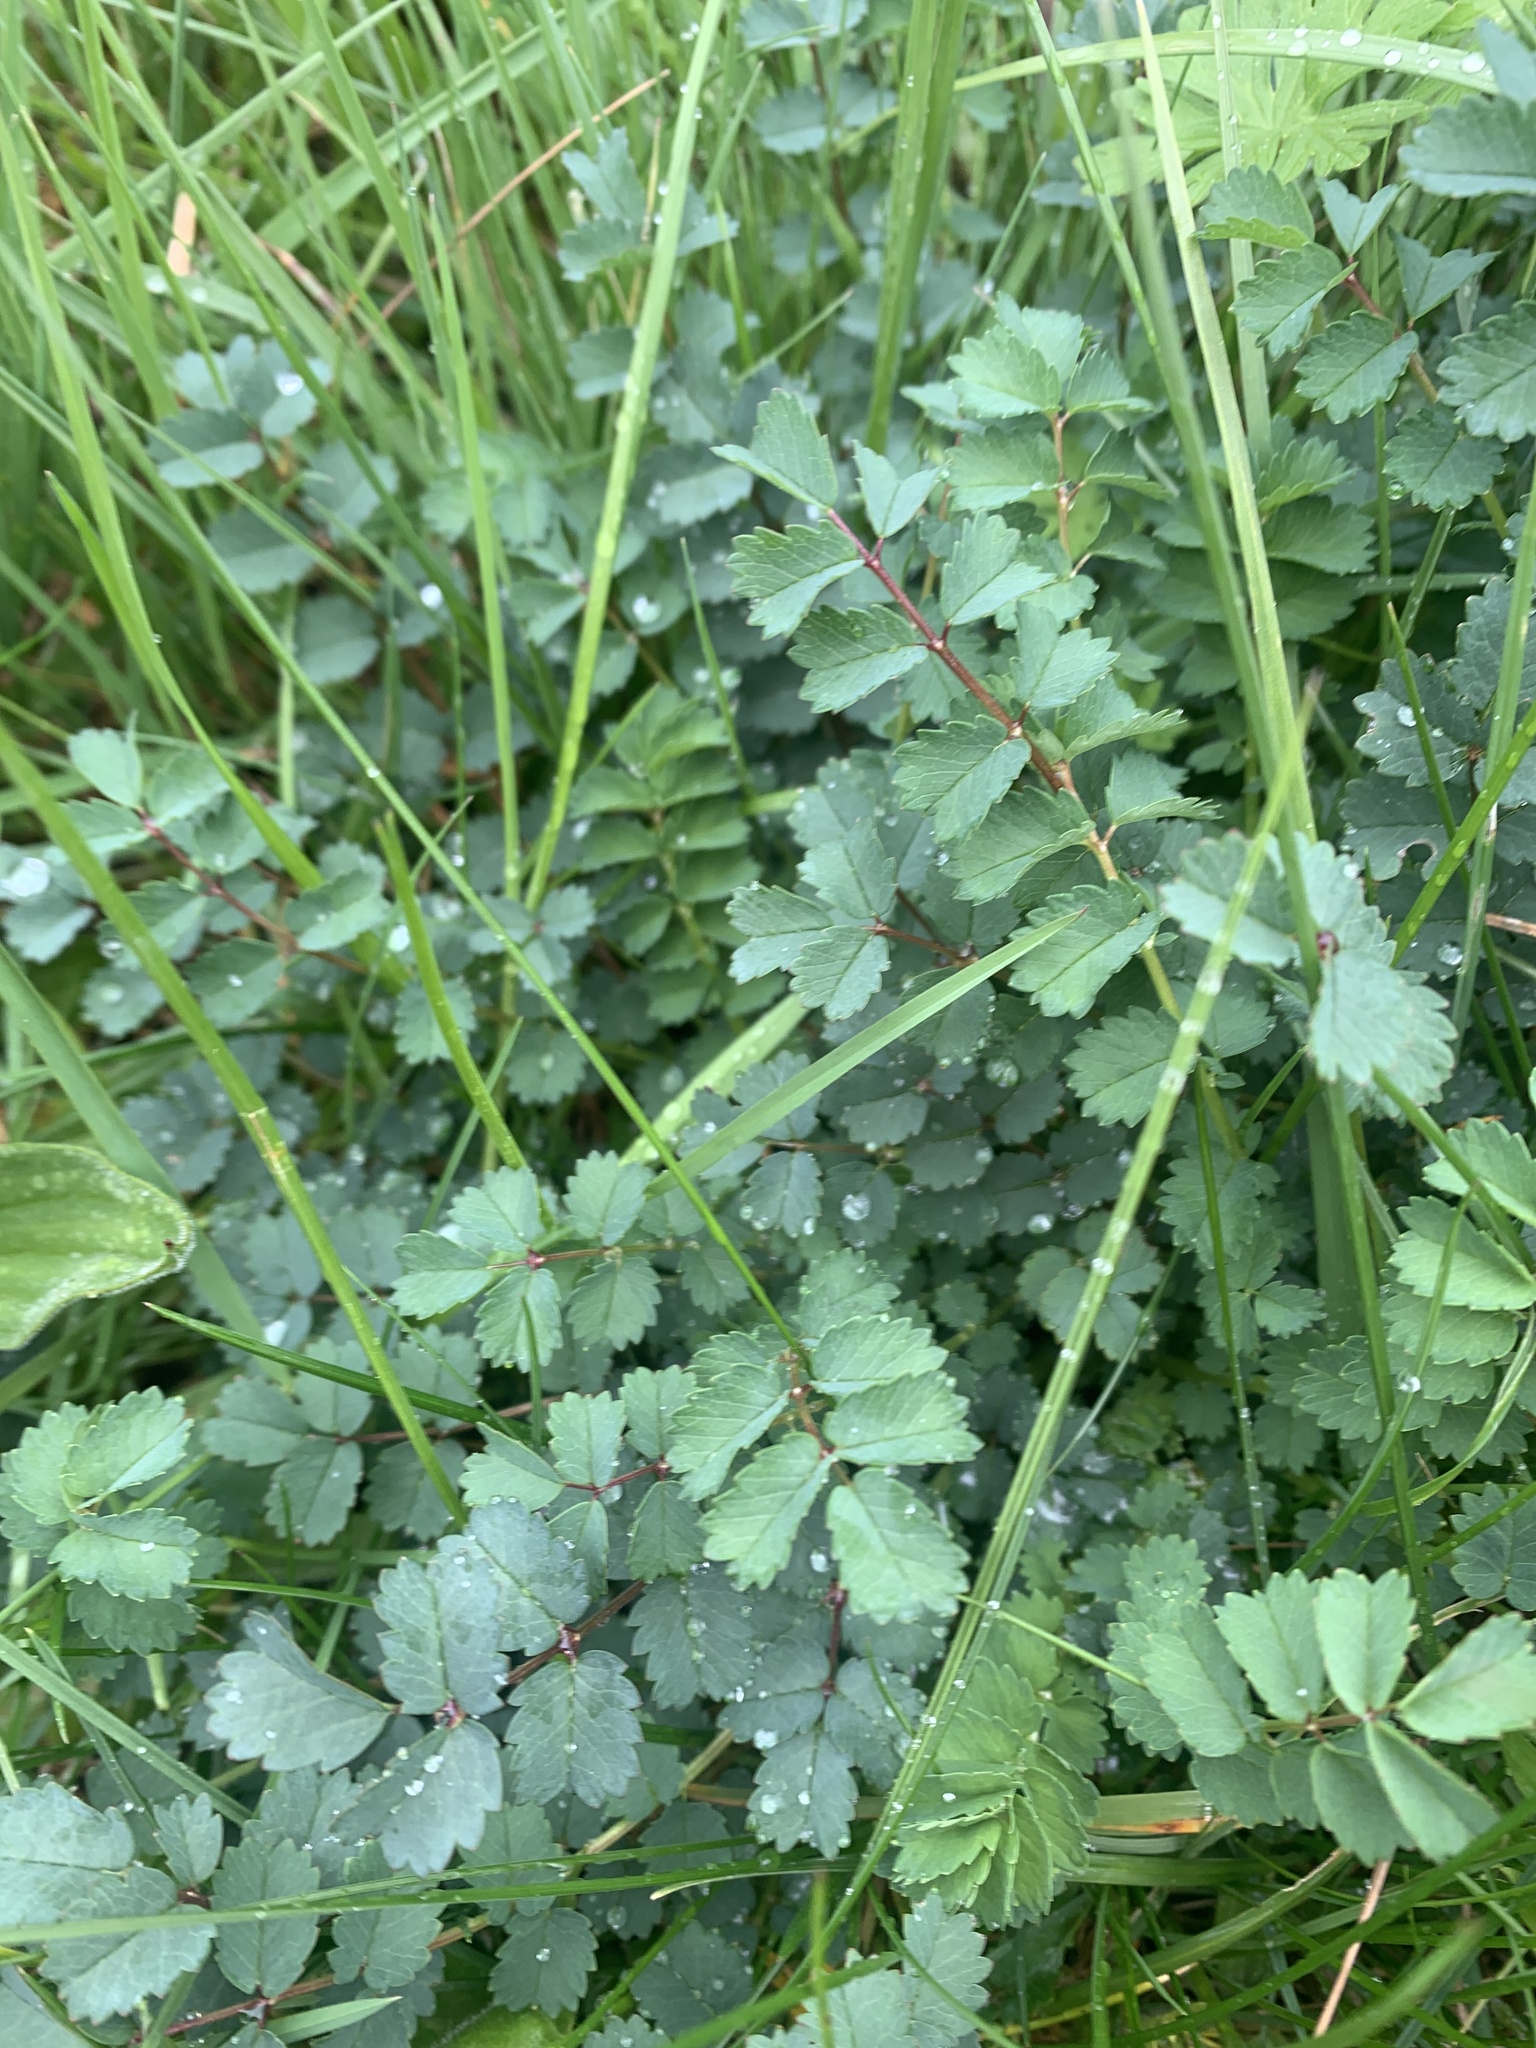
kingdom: Plantae
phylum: Tracheophyta
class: Magnoliopsida
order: Rosales
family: Rosaceae
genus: Poterium
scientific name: Poterium sanguisorba
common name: Salad burnet
